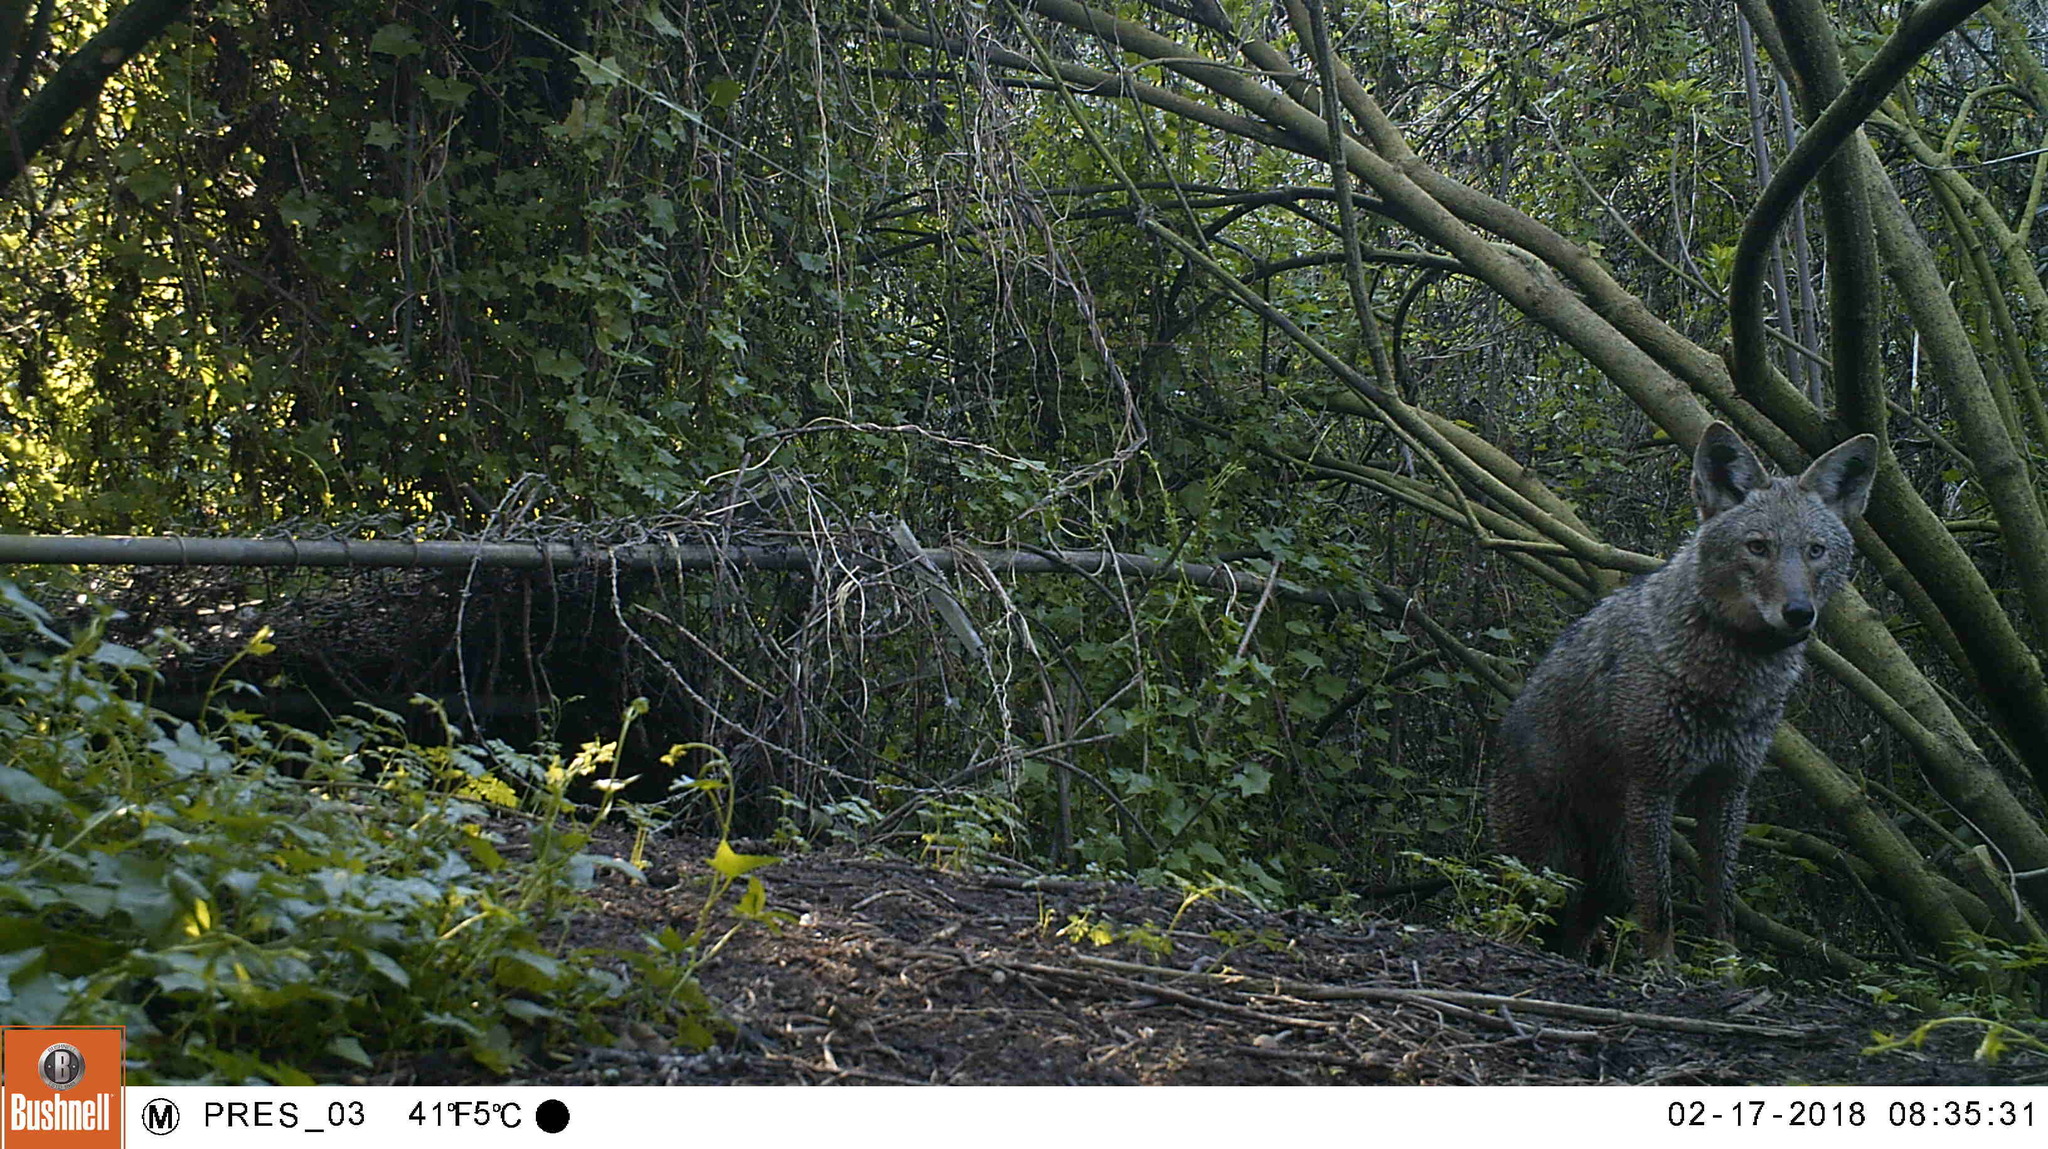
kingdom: Animalia
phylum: Chordata
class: Mammalia
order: Carnivora
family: Canidae
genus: Canis
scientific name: Canis latrans
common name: Coyote
